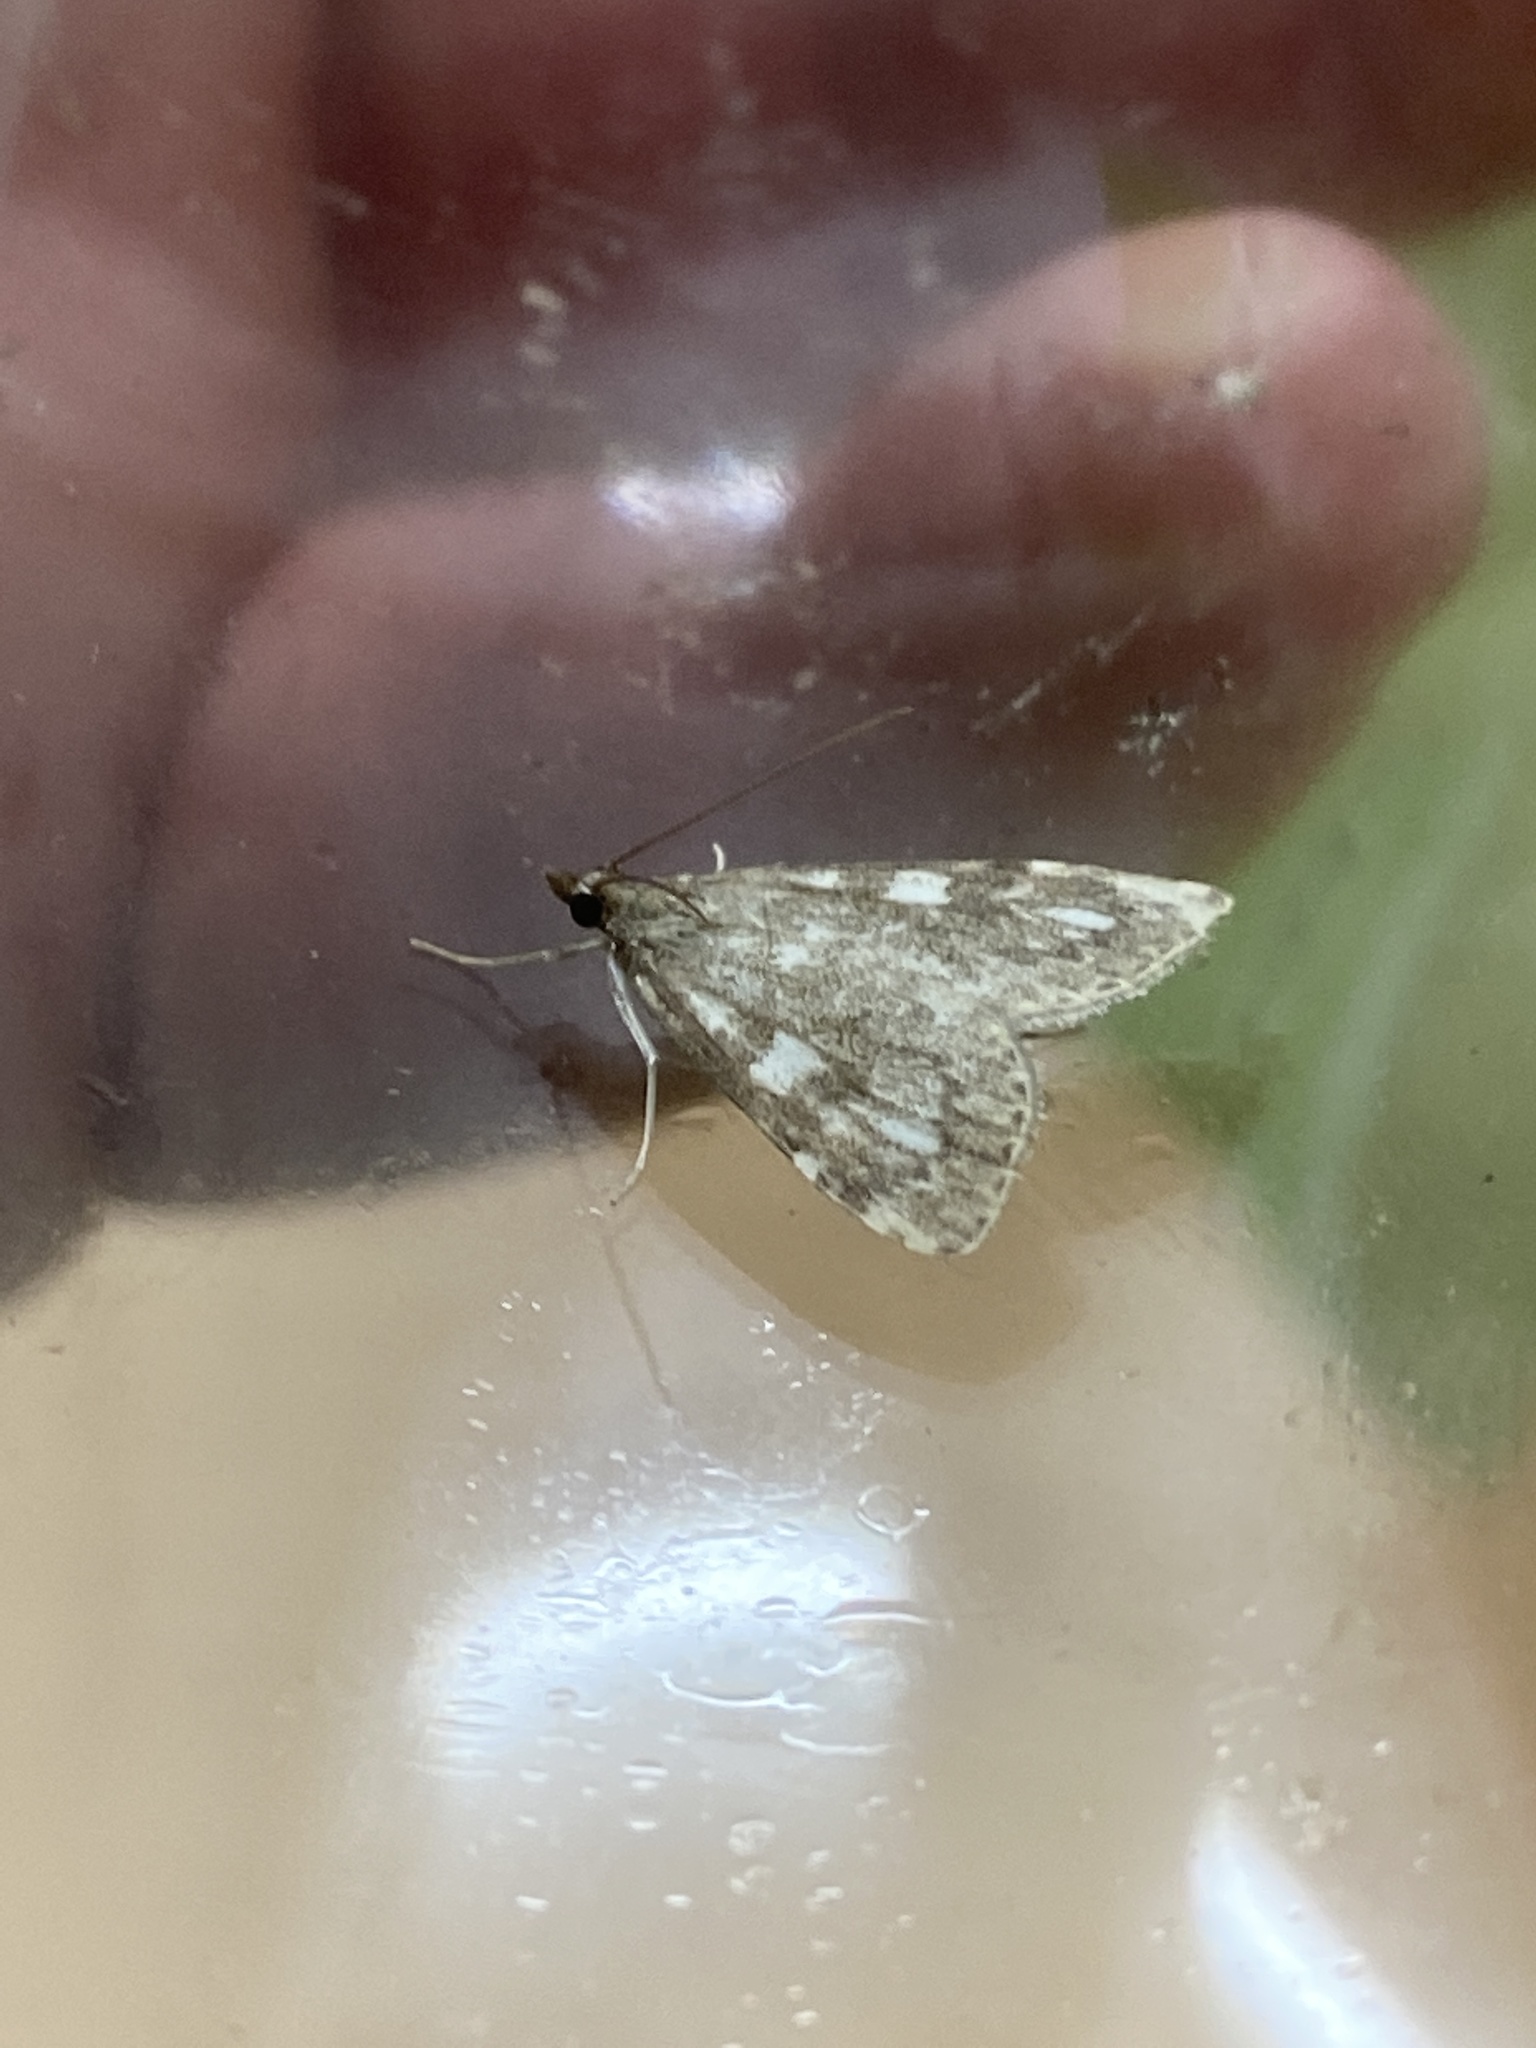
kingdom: Animalia
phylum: Arthropoda
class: Insecta
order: Lepidoptera
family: Crambidae
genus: Udea
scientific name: Udea olivalis
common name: Olive pearl
